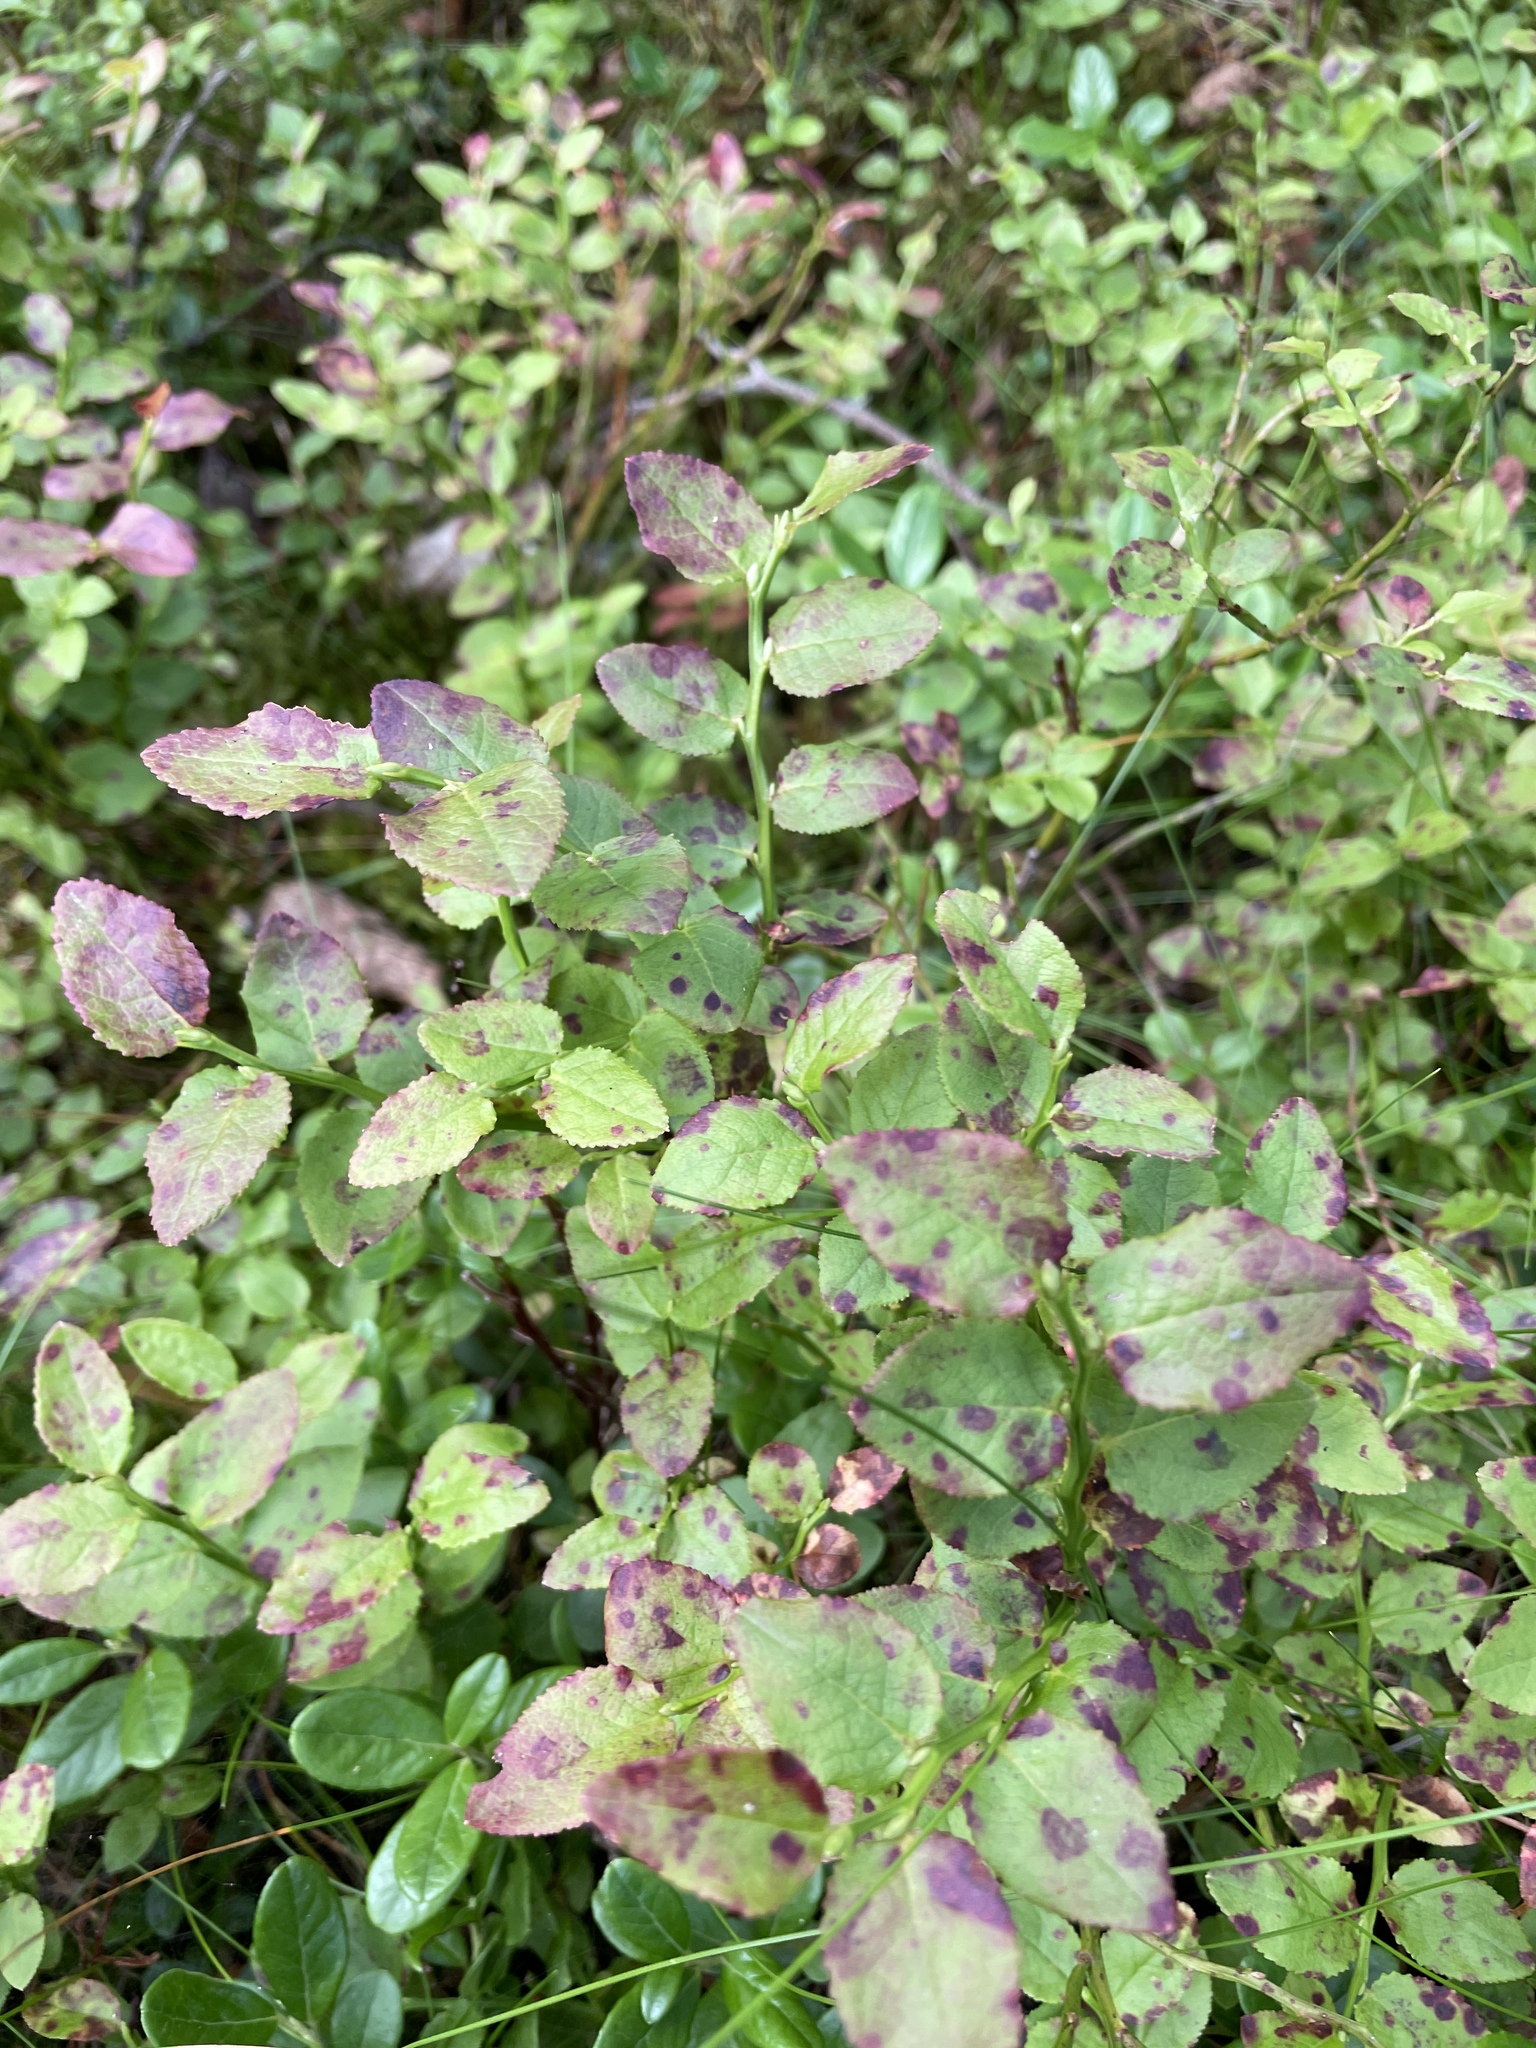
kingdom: Plantae
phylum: Tracheophyta
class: Magnoliopsida
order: Ericales
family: Ericaceae
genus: Vaccinium
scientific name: Vaccinium myrtillus
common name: Bilberry
